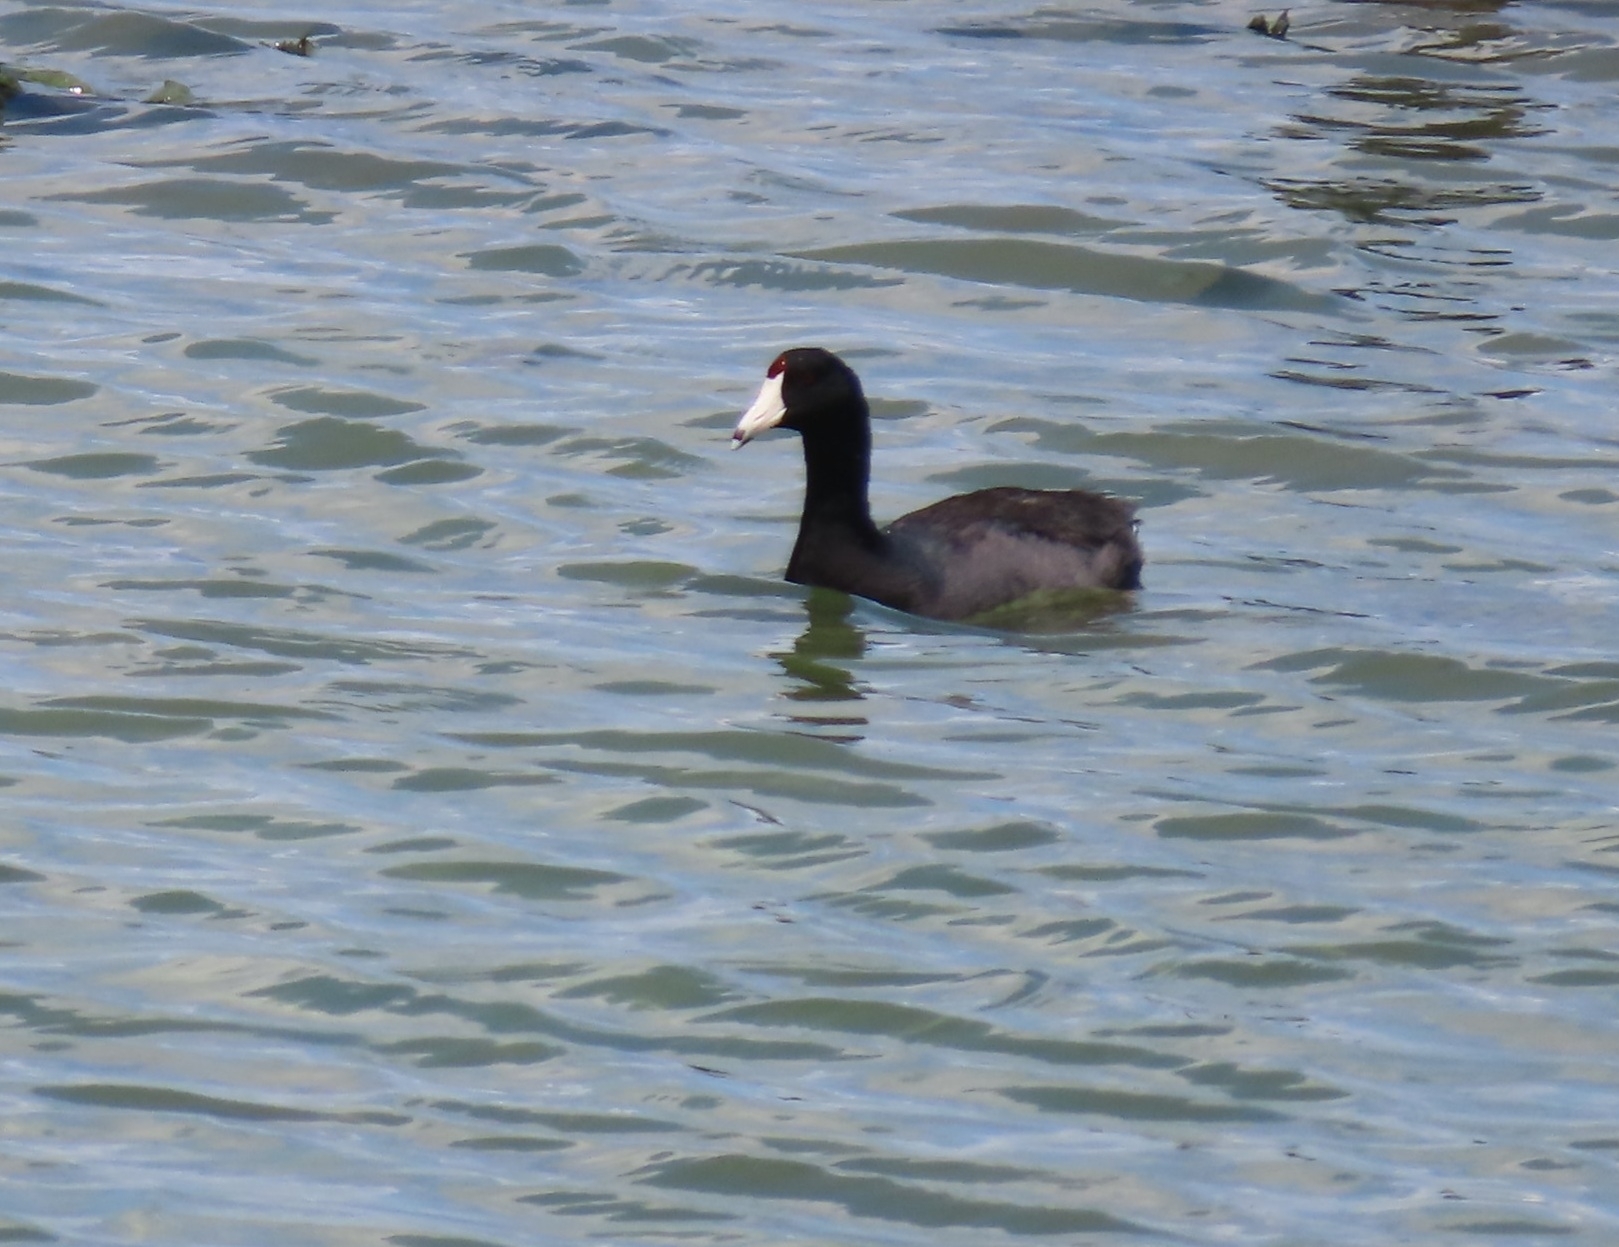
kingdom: Animalia
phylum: Chordata
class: Aves
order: Gruiformes
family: Rallidae
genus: Fulica
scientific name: Fulica americana
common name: American coot
